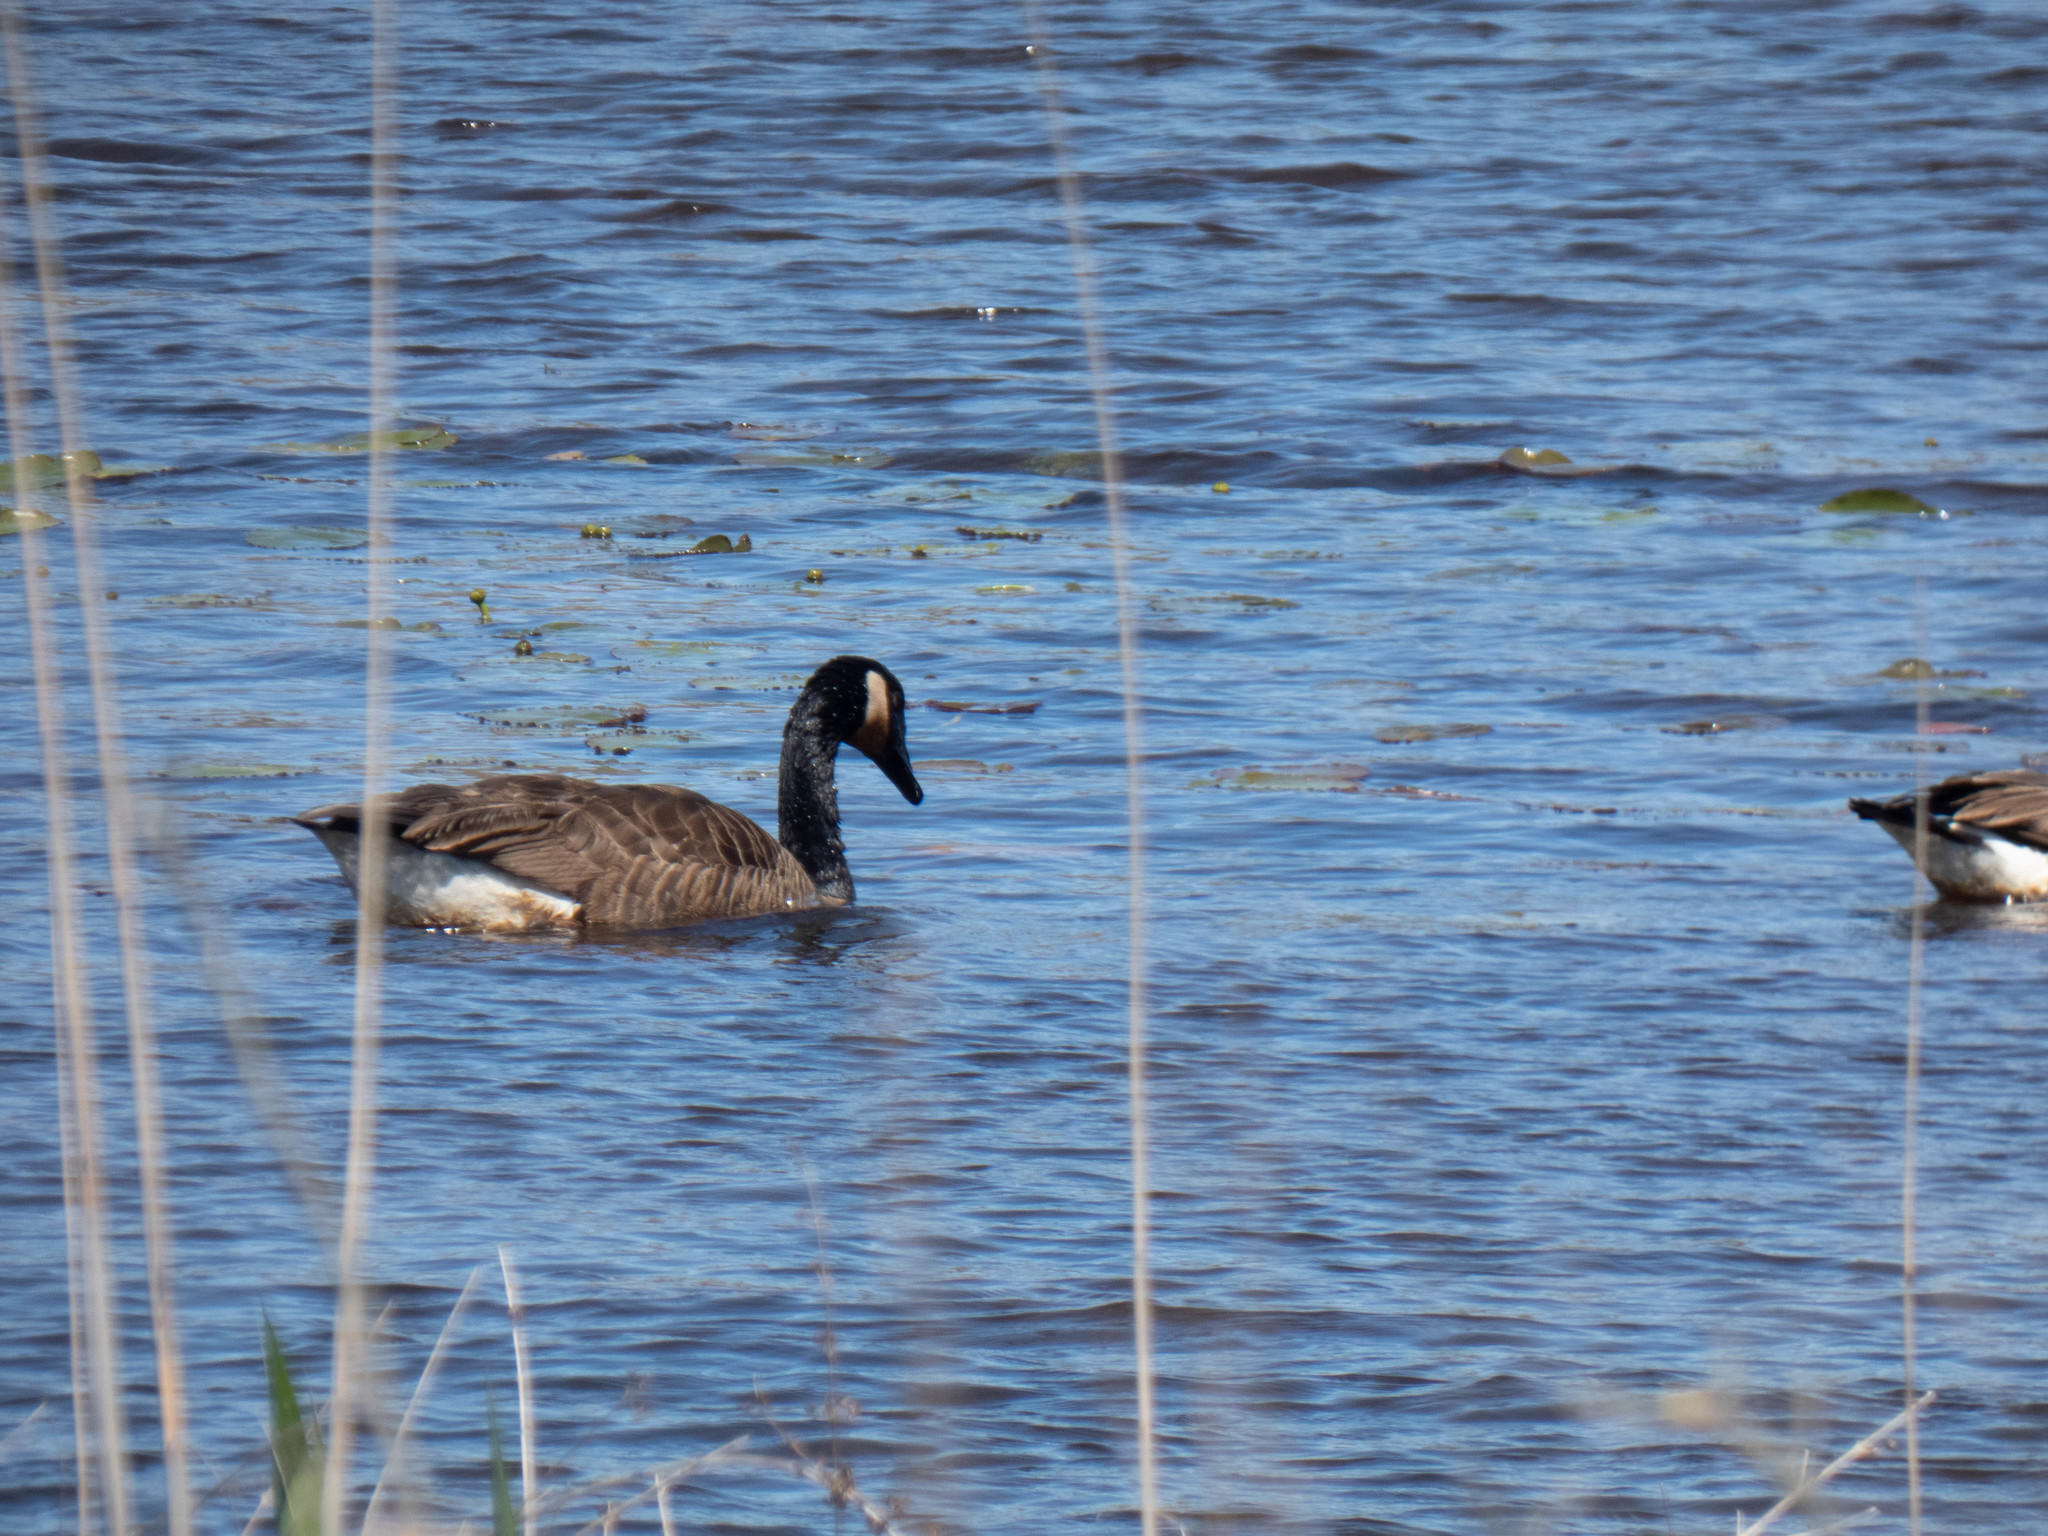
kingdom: Animalia
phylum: Chordata
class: Aves
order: Anseriformes
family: Anatidae
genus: Branta
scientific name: Branta canadensis
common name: Canada goose
